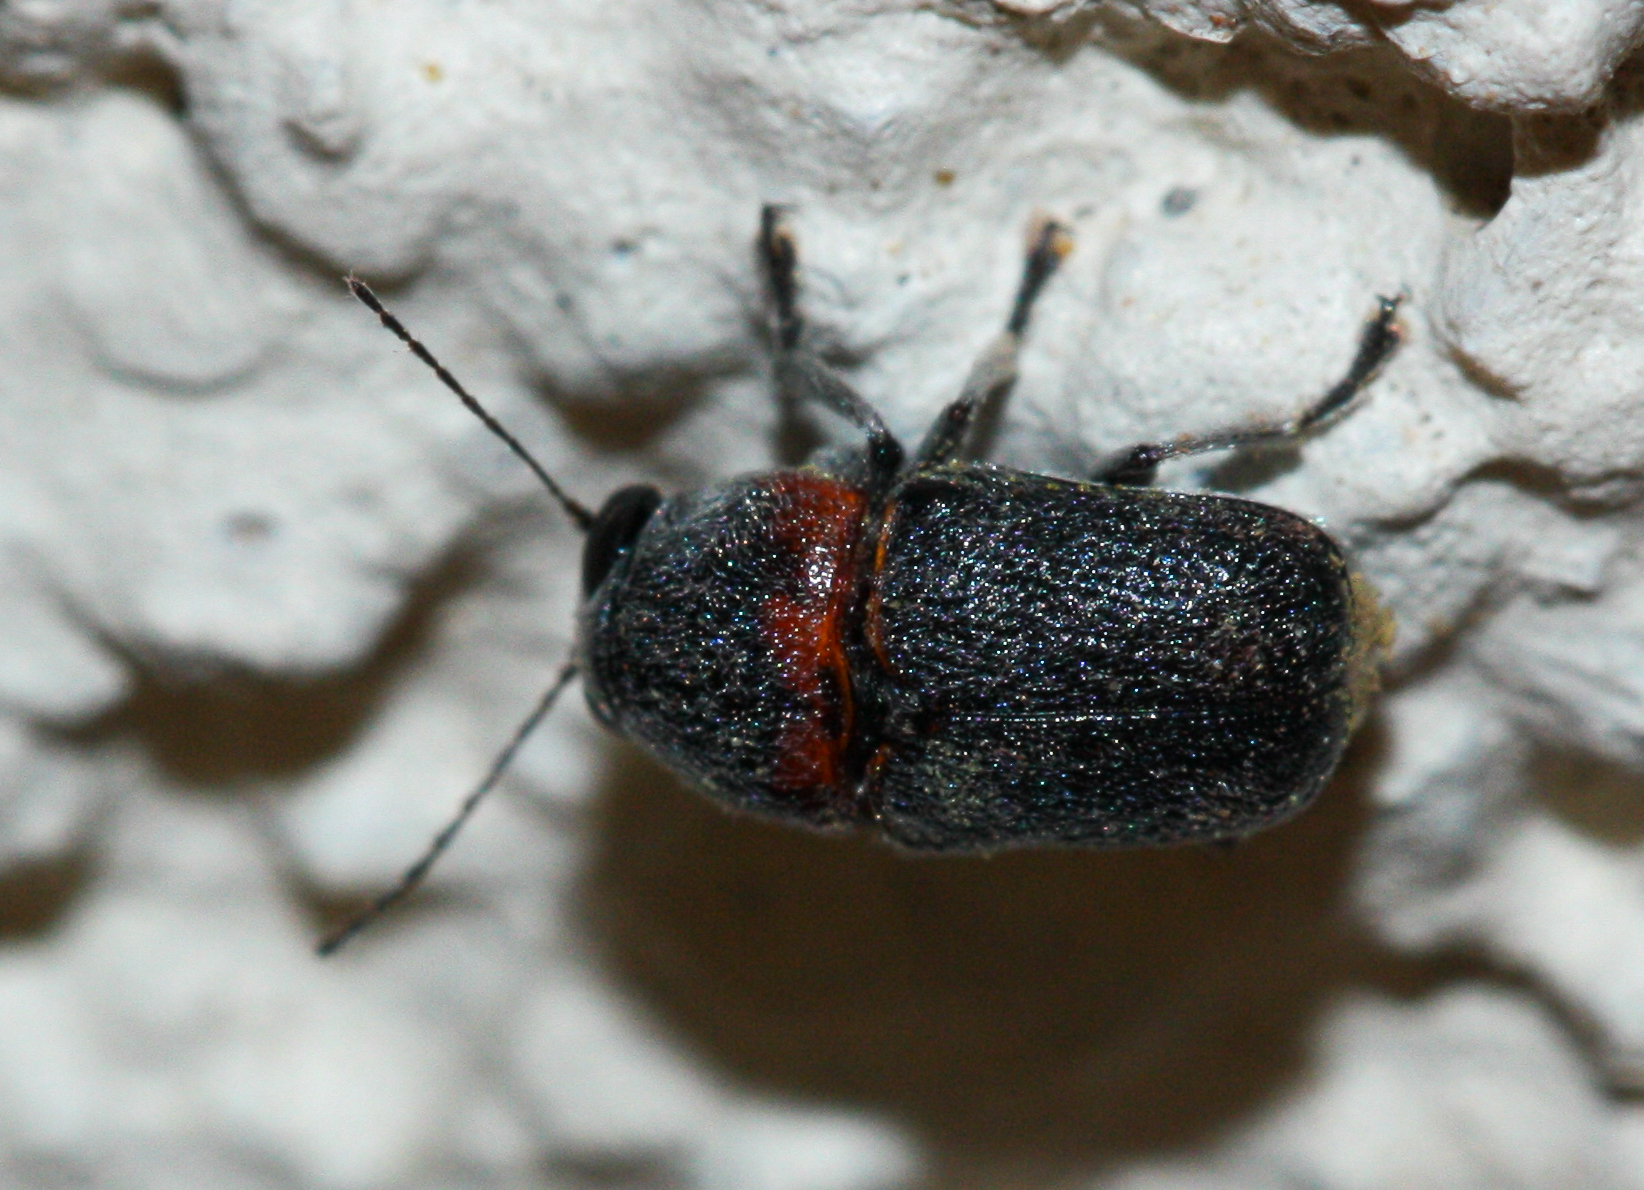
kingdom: Animalia
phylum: Arthropoda
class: Insecta
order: Coleoptera
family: Chrysomelidae
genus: Pachybrachis
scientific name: Pachybrachis thoracicus
